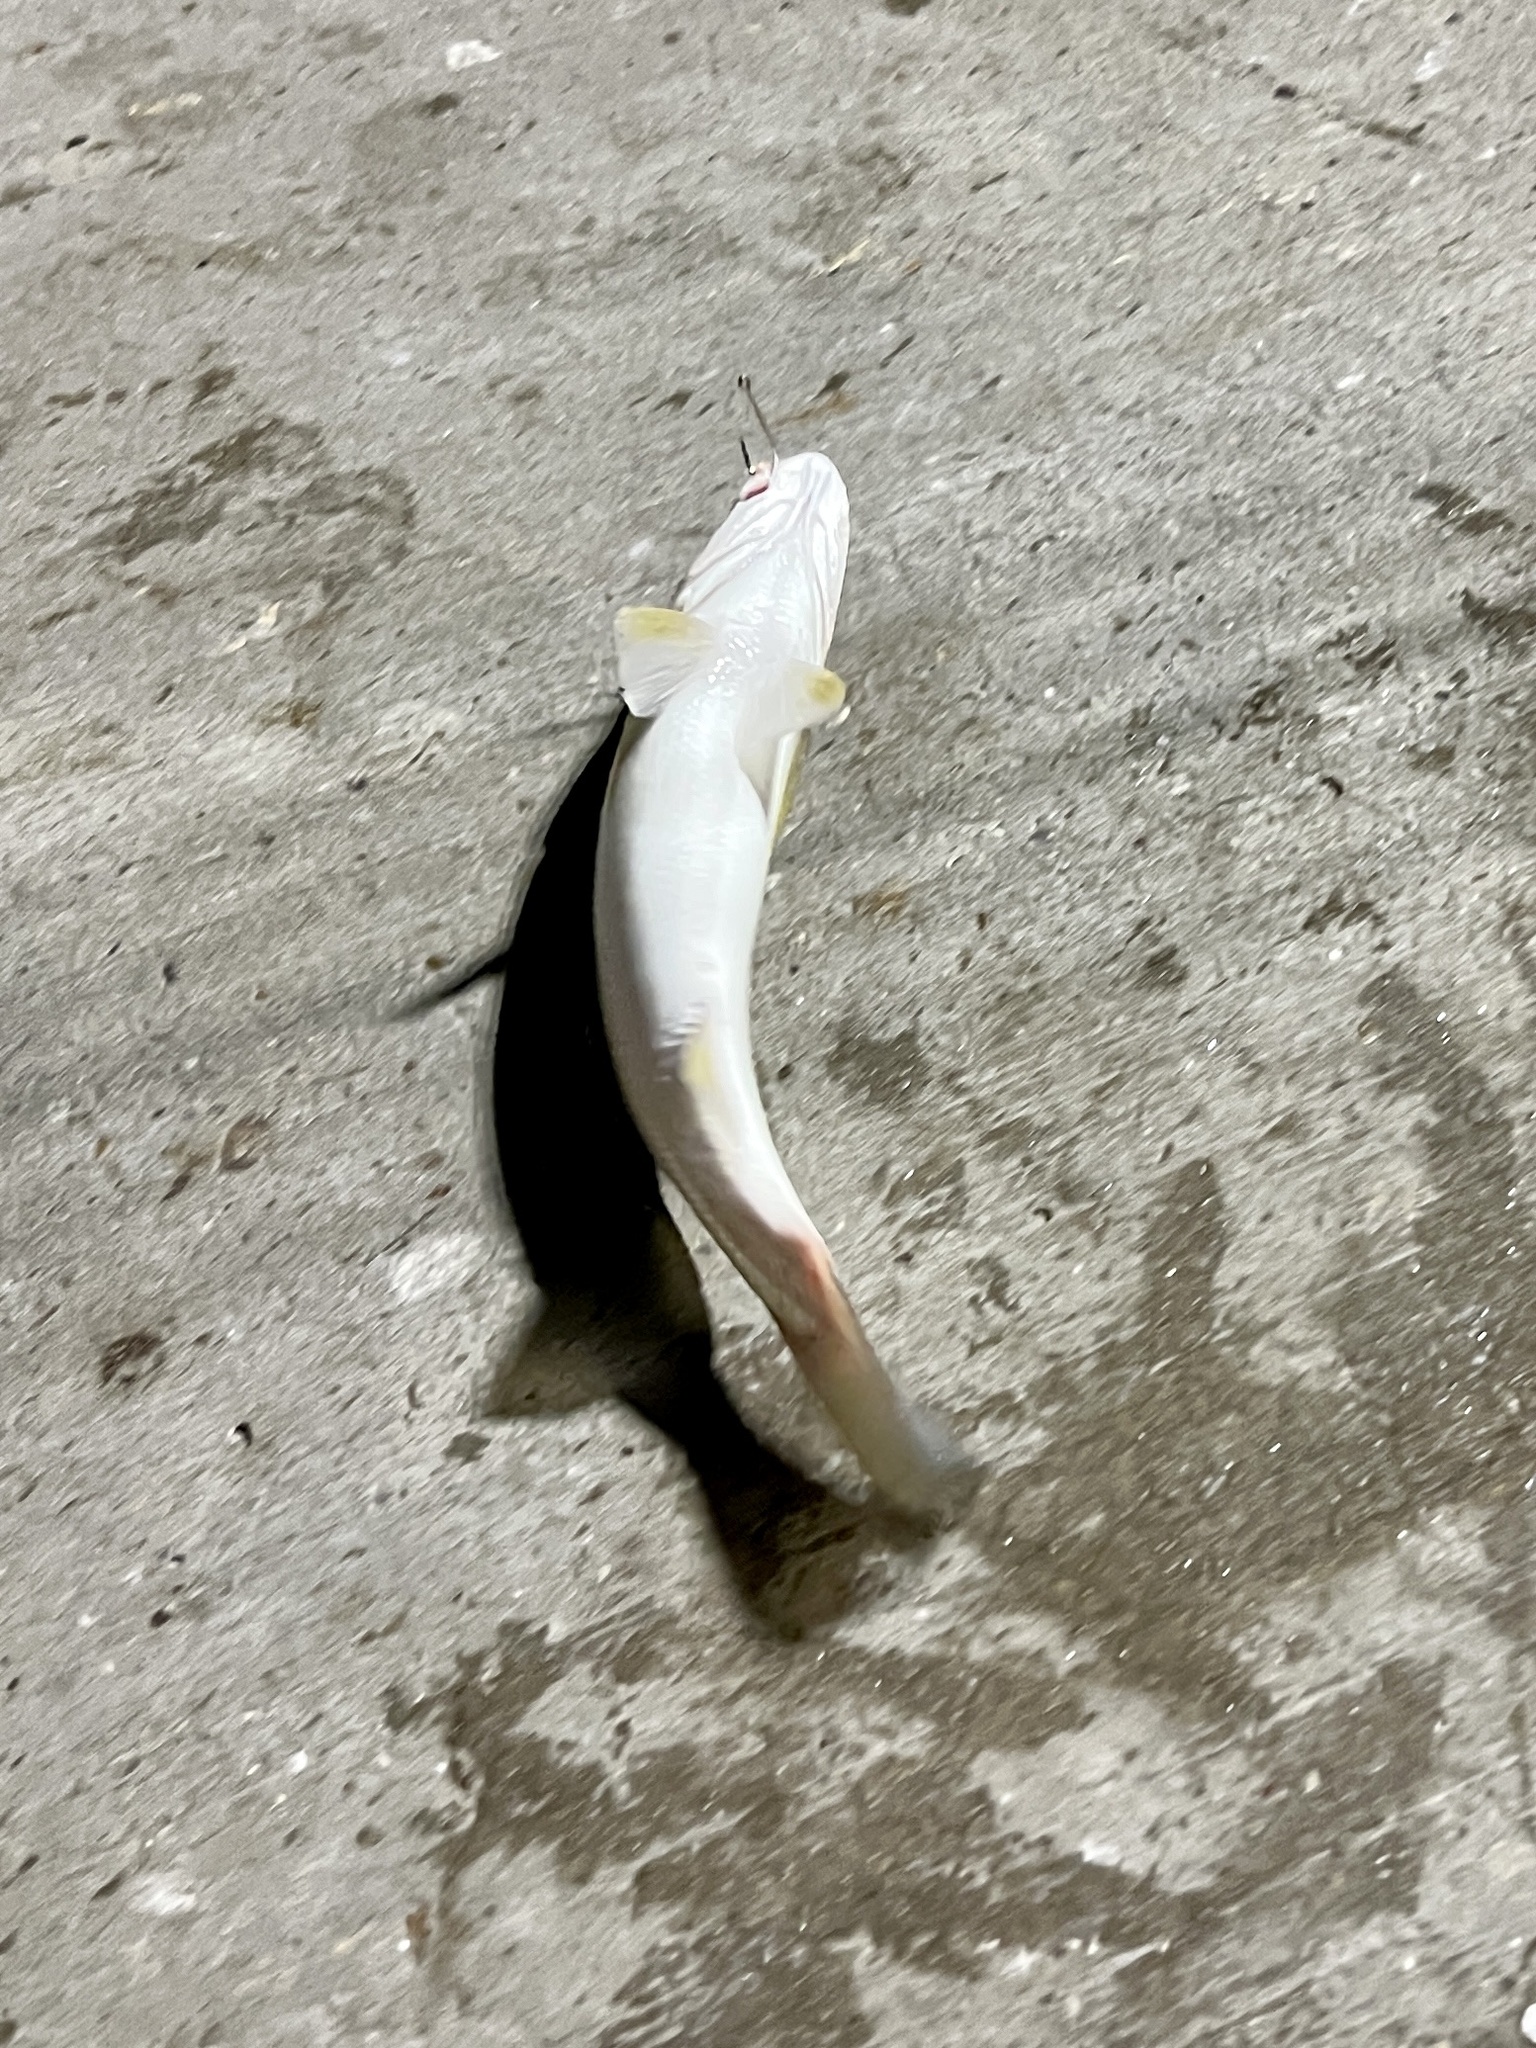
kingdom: Animalia
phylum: Chordata
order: Perciformes
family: Sciaenidae
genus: Cynoscion
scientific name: Cynoscion arenarius
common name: Sand seatrout
